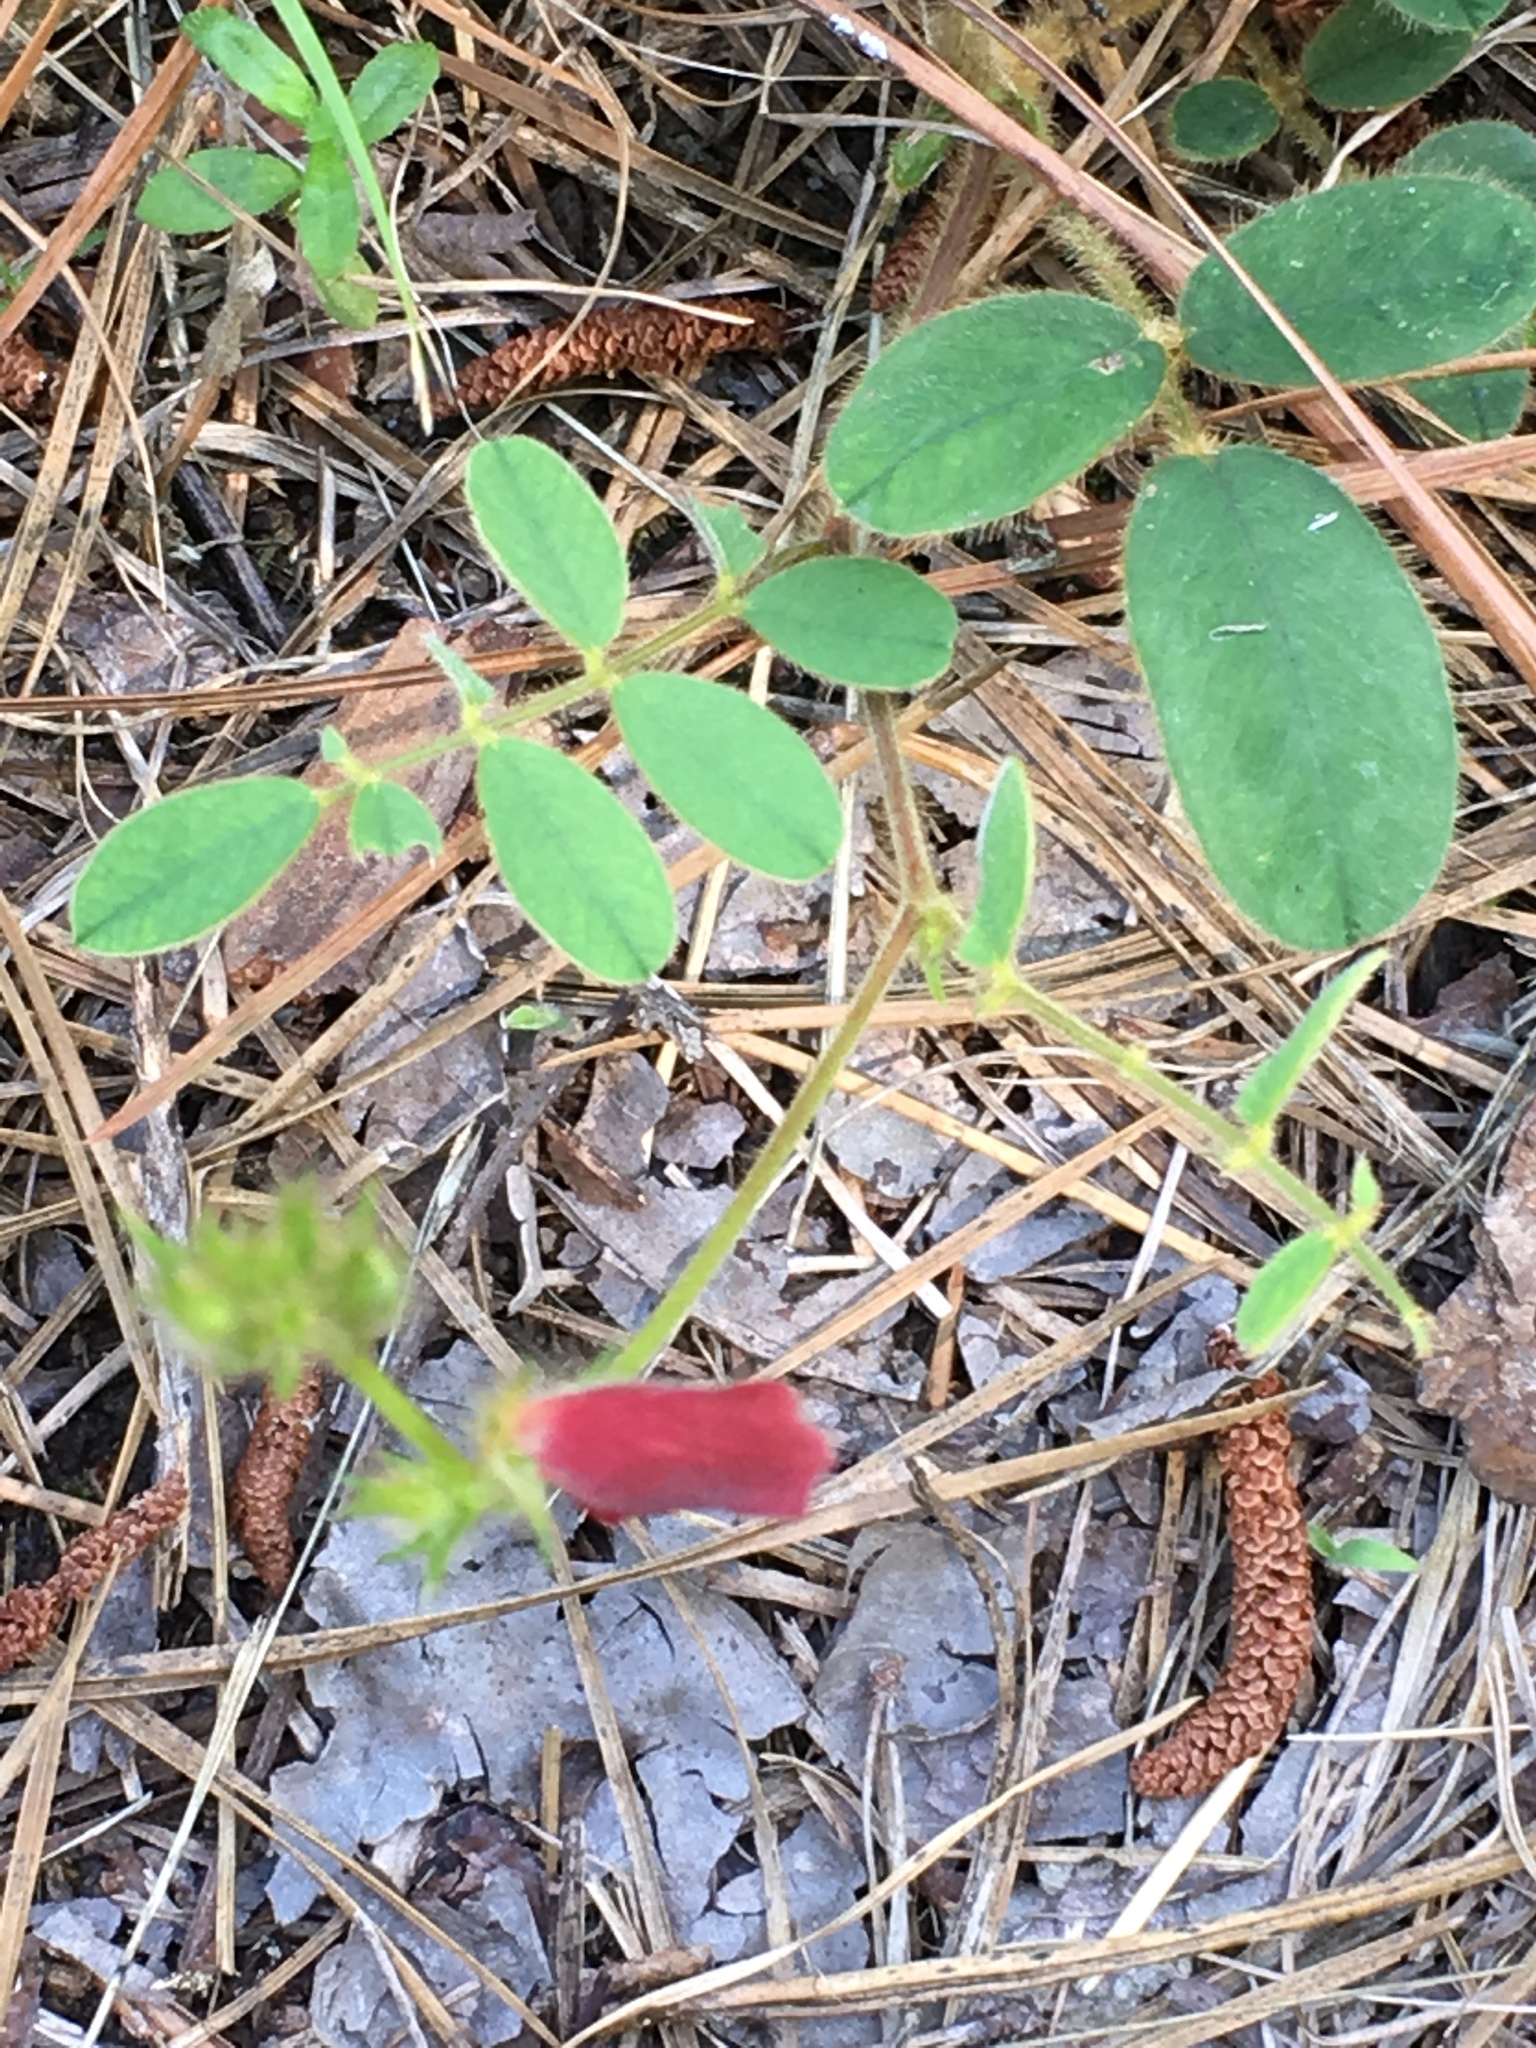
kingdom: Plantae
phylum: Tracheophyta
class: Magnoliopsida
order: Fabales
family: Fabaceae
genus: Tephrosia
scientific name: Tephrosia spicata
